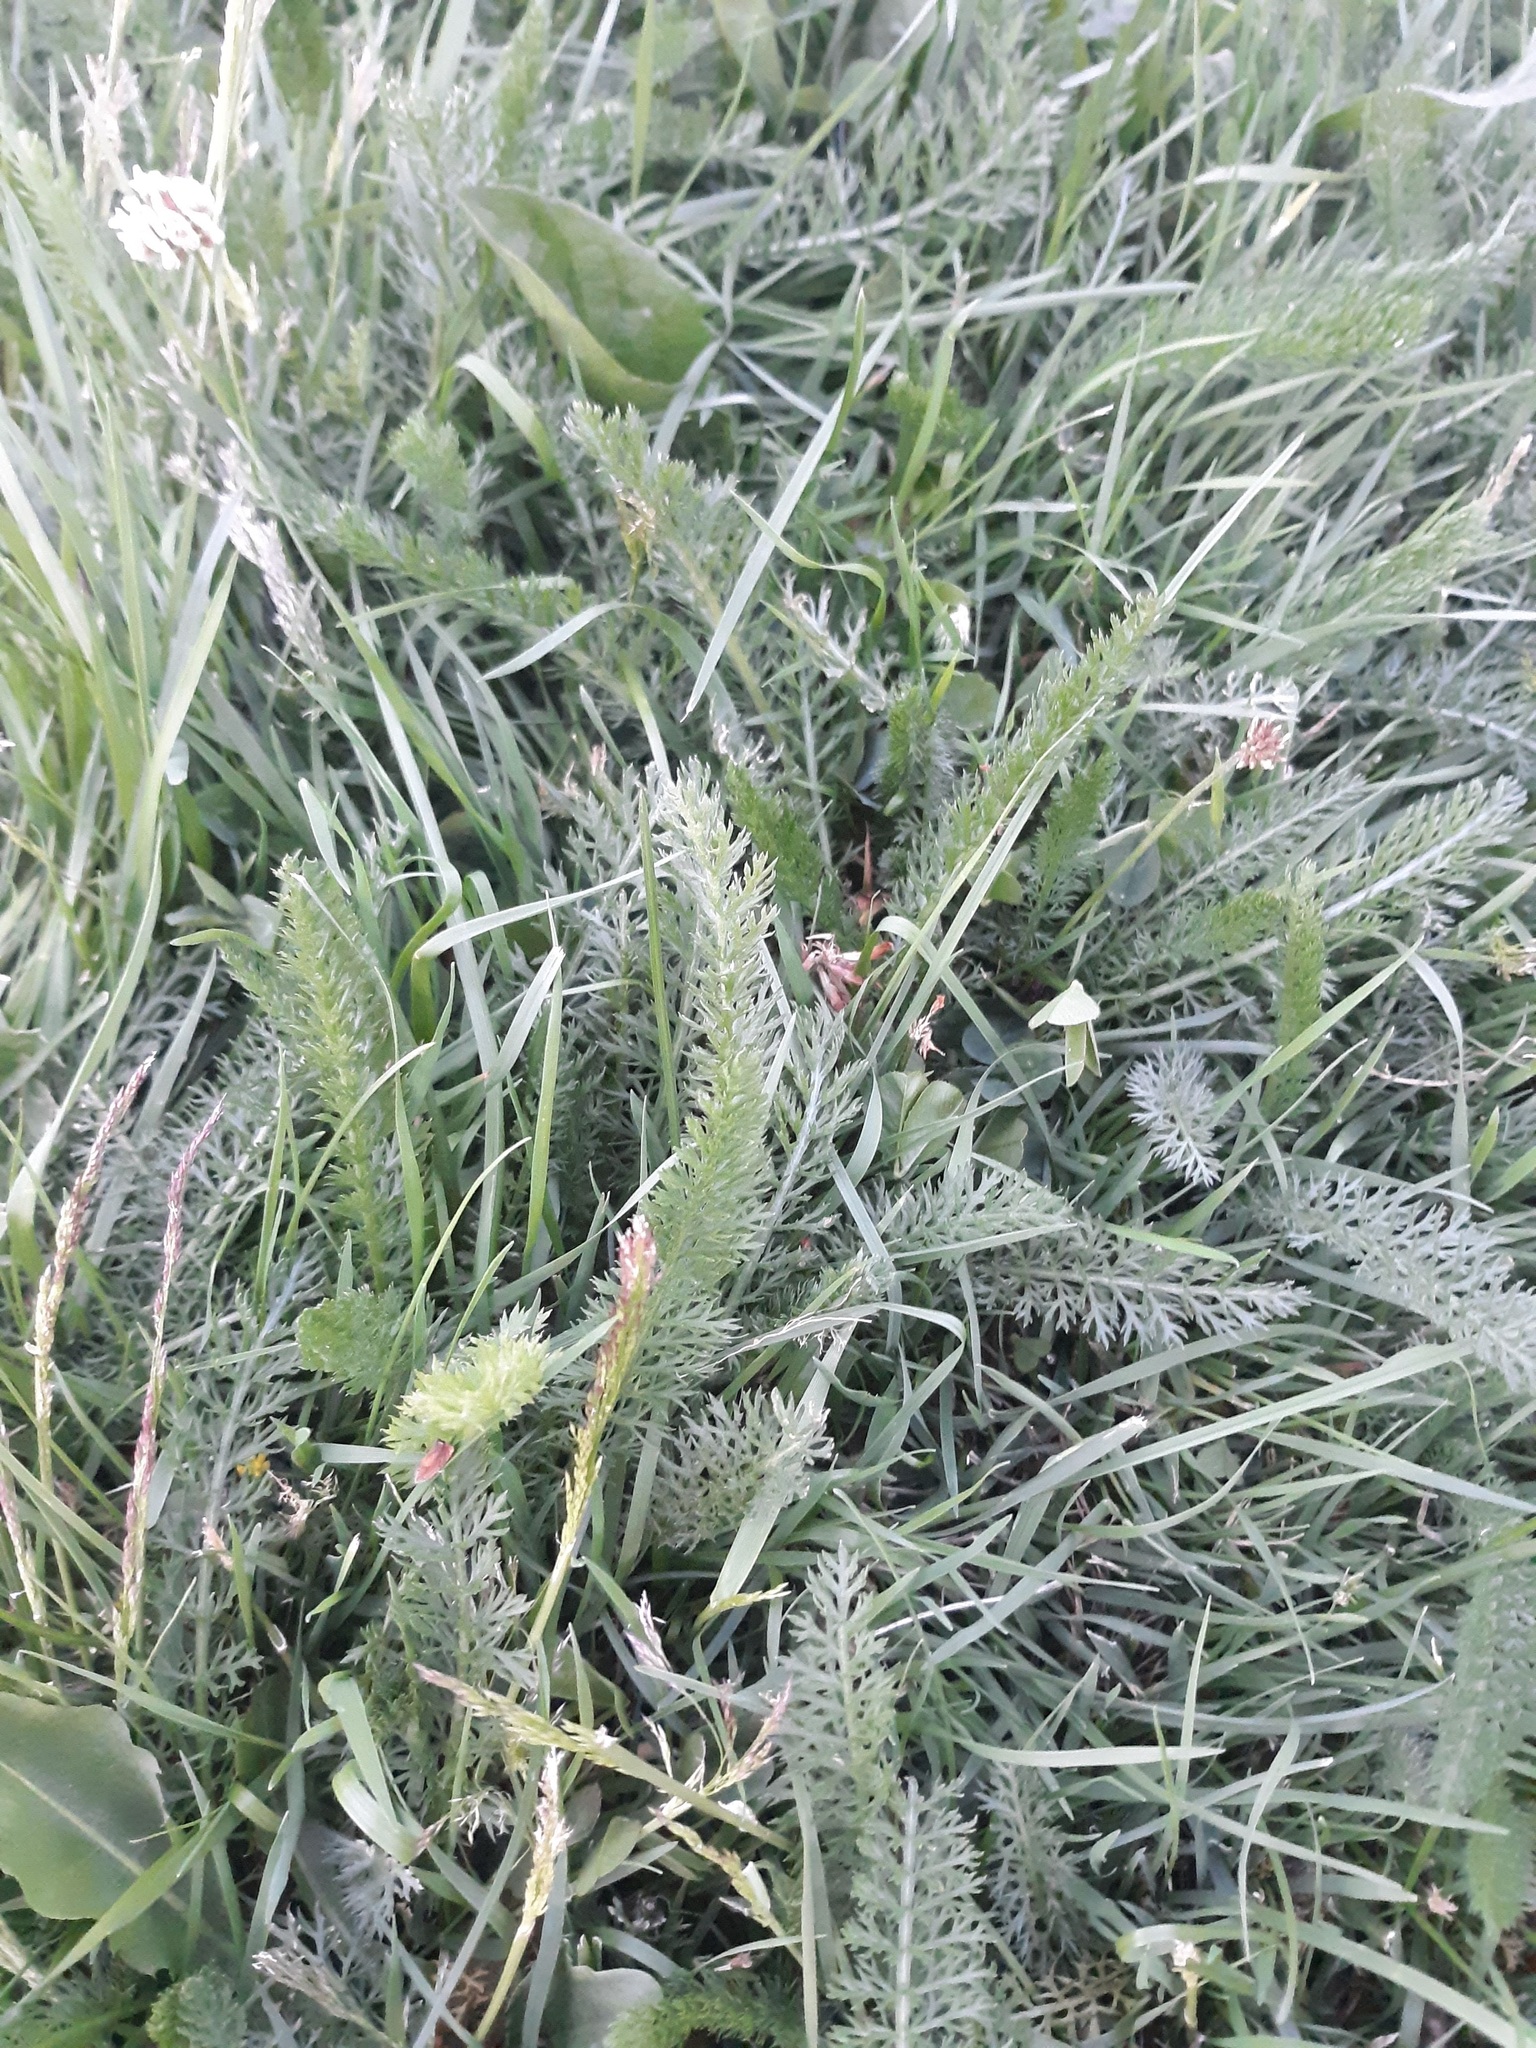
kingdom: Plantae
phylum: Tracheophyta
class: Magnoliopsida
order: Asterales
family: Asteraceae
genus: Achillea
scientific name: Achillea millefolium
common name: Yarrow
